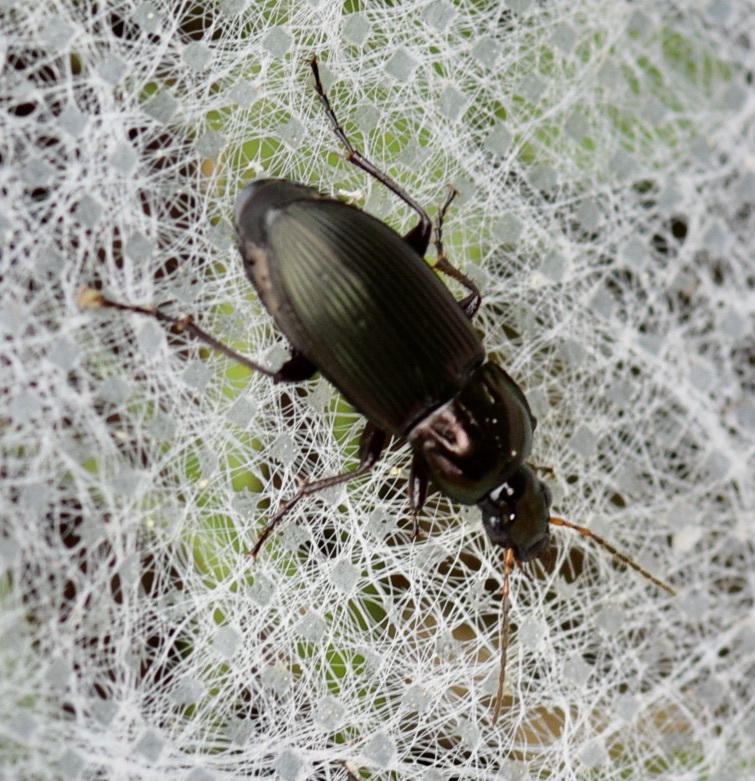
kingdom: Animalia
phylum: Arthropoda
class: Insecta
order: Coleoptera
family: Carabidae
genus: Poecilus
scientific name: Poecilus chalcites
